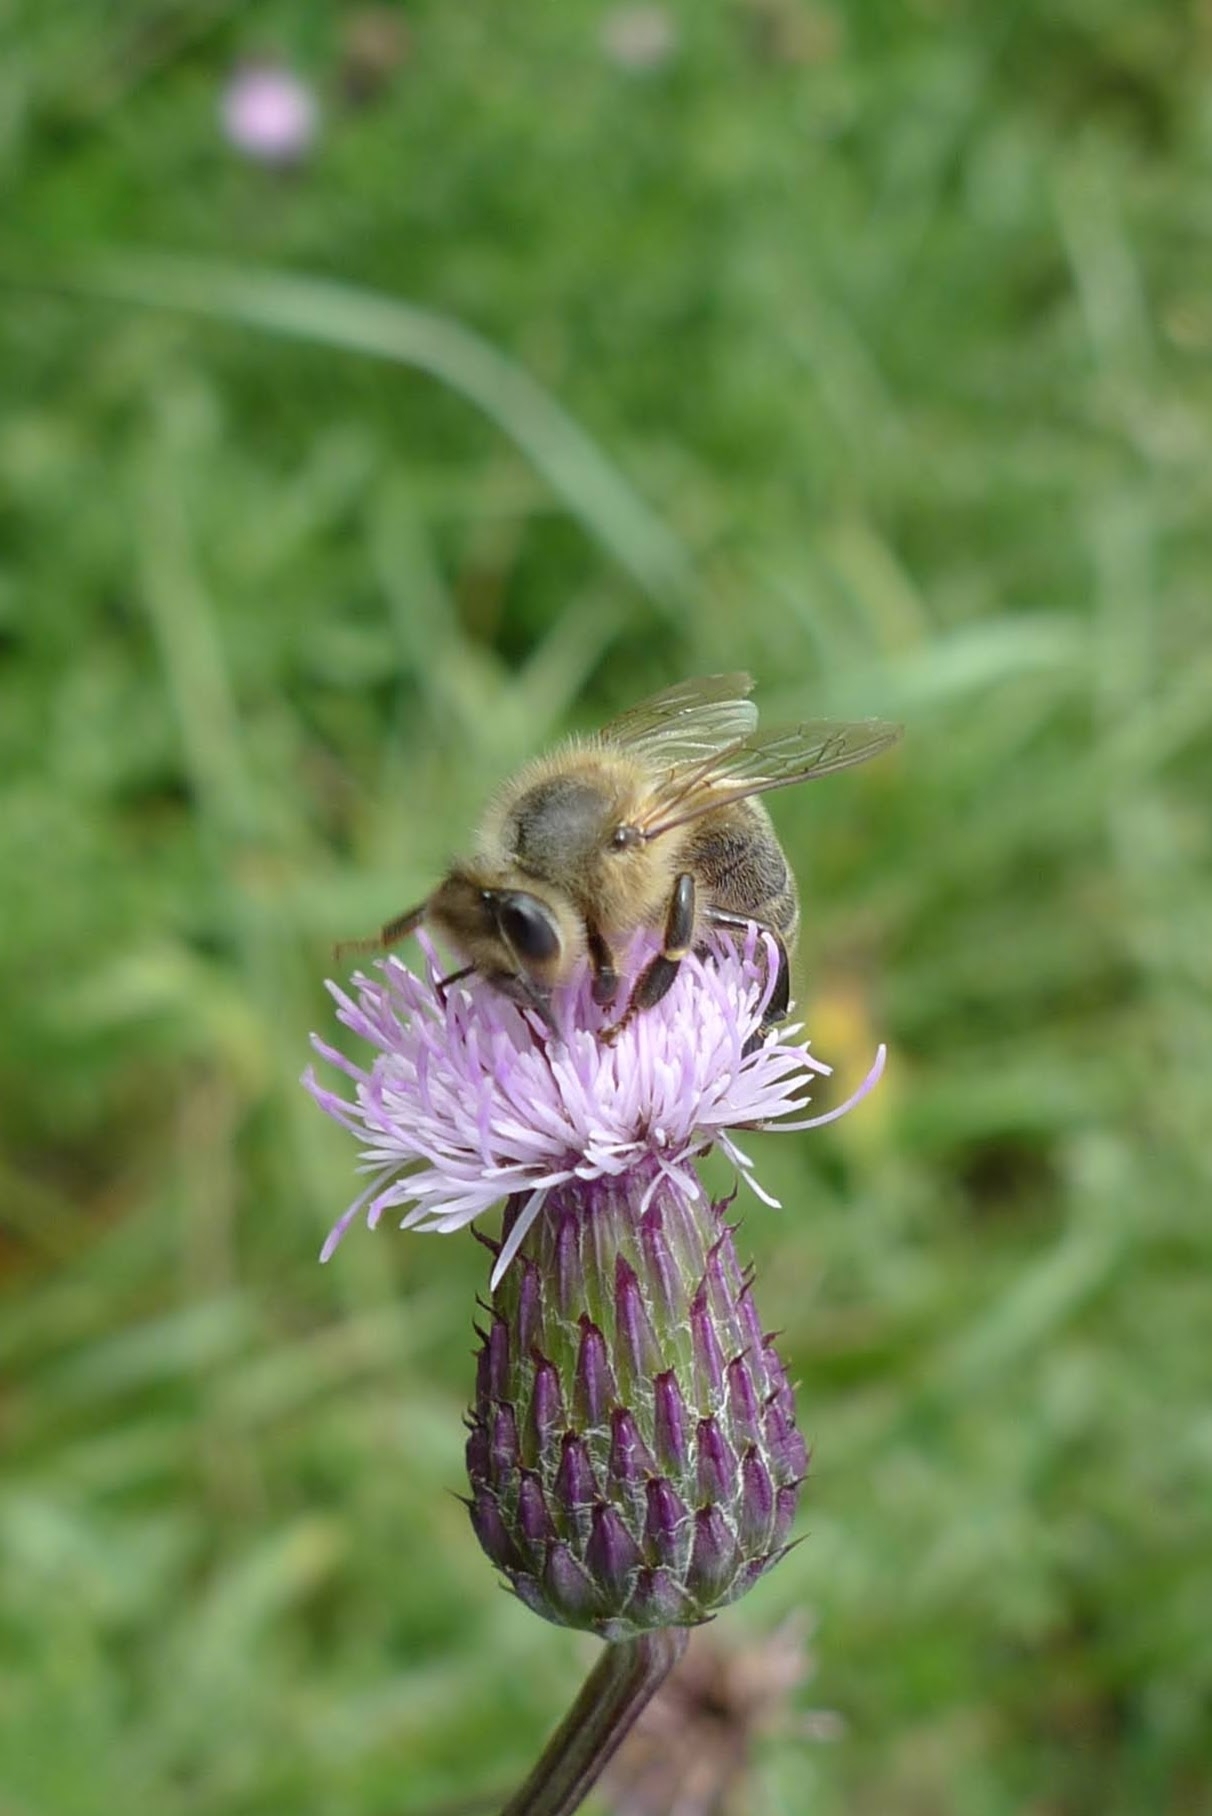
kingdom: Animalia
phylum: Arthropoda
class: Insecta
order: Hymenoptera
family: Apidae
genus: Apis
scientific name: Apis mellifera
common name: Honey bee
